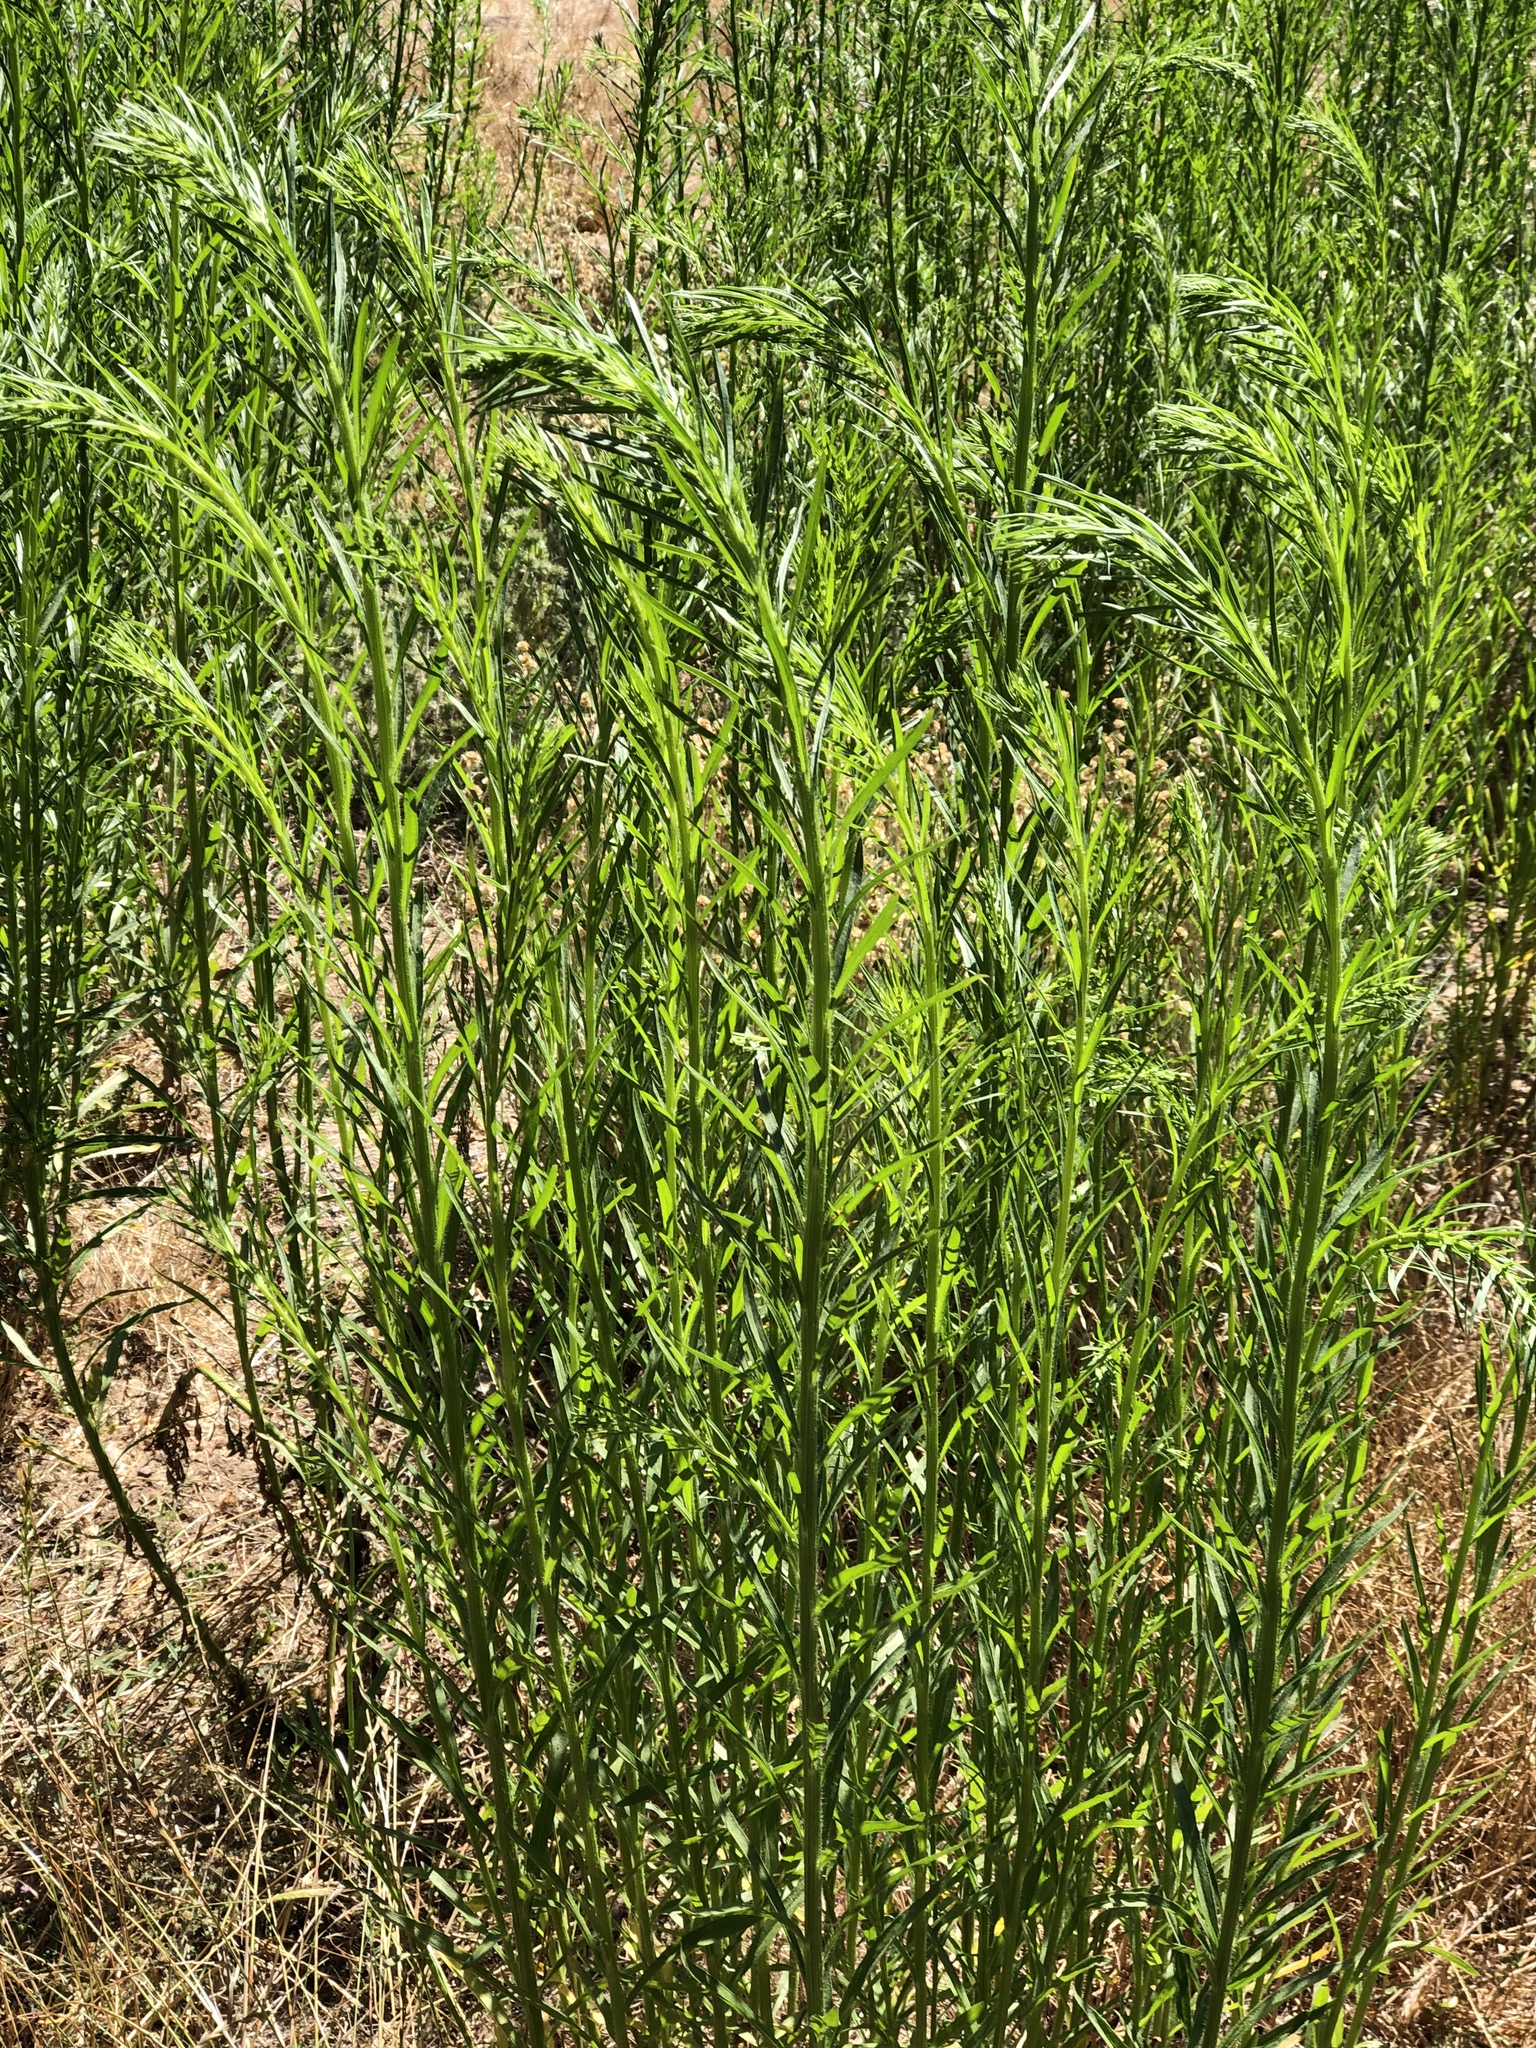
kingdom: Plantae
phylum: Tracheophyta
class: Magnoliopsida
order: Asterales
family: Asteraceae
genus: Erigeron
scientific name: Erigeron canadensis
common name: Canadian fleabane
